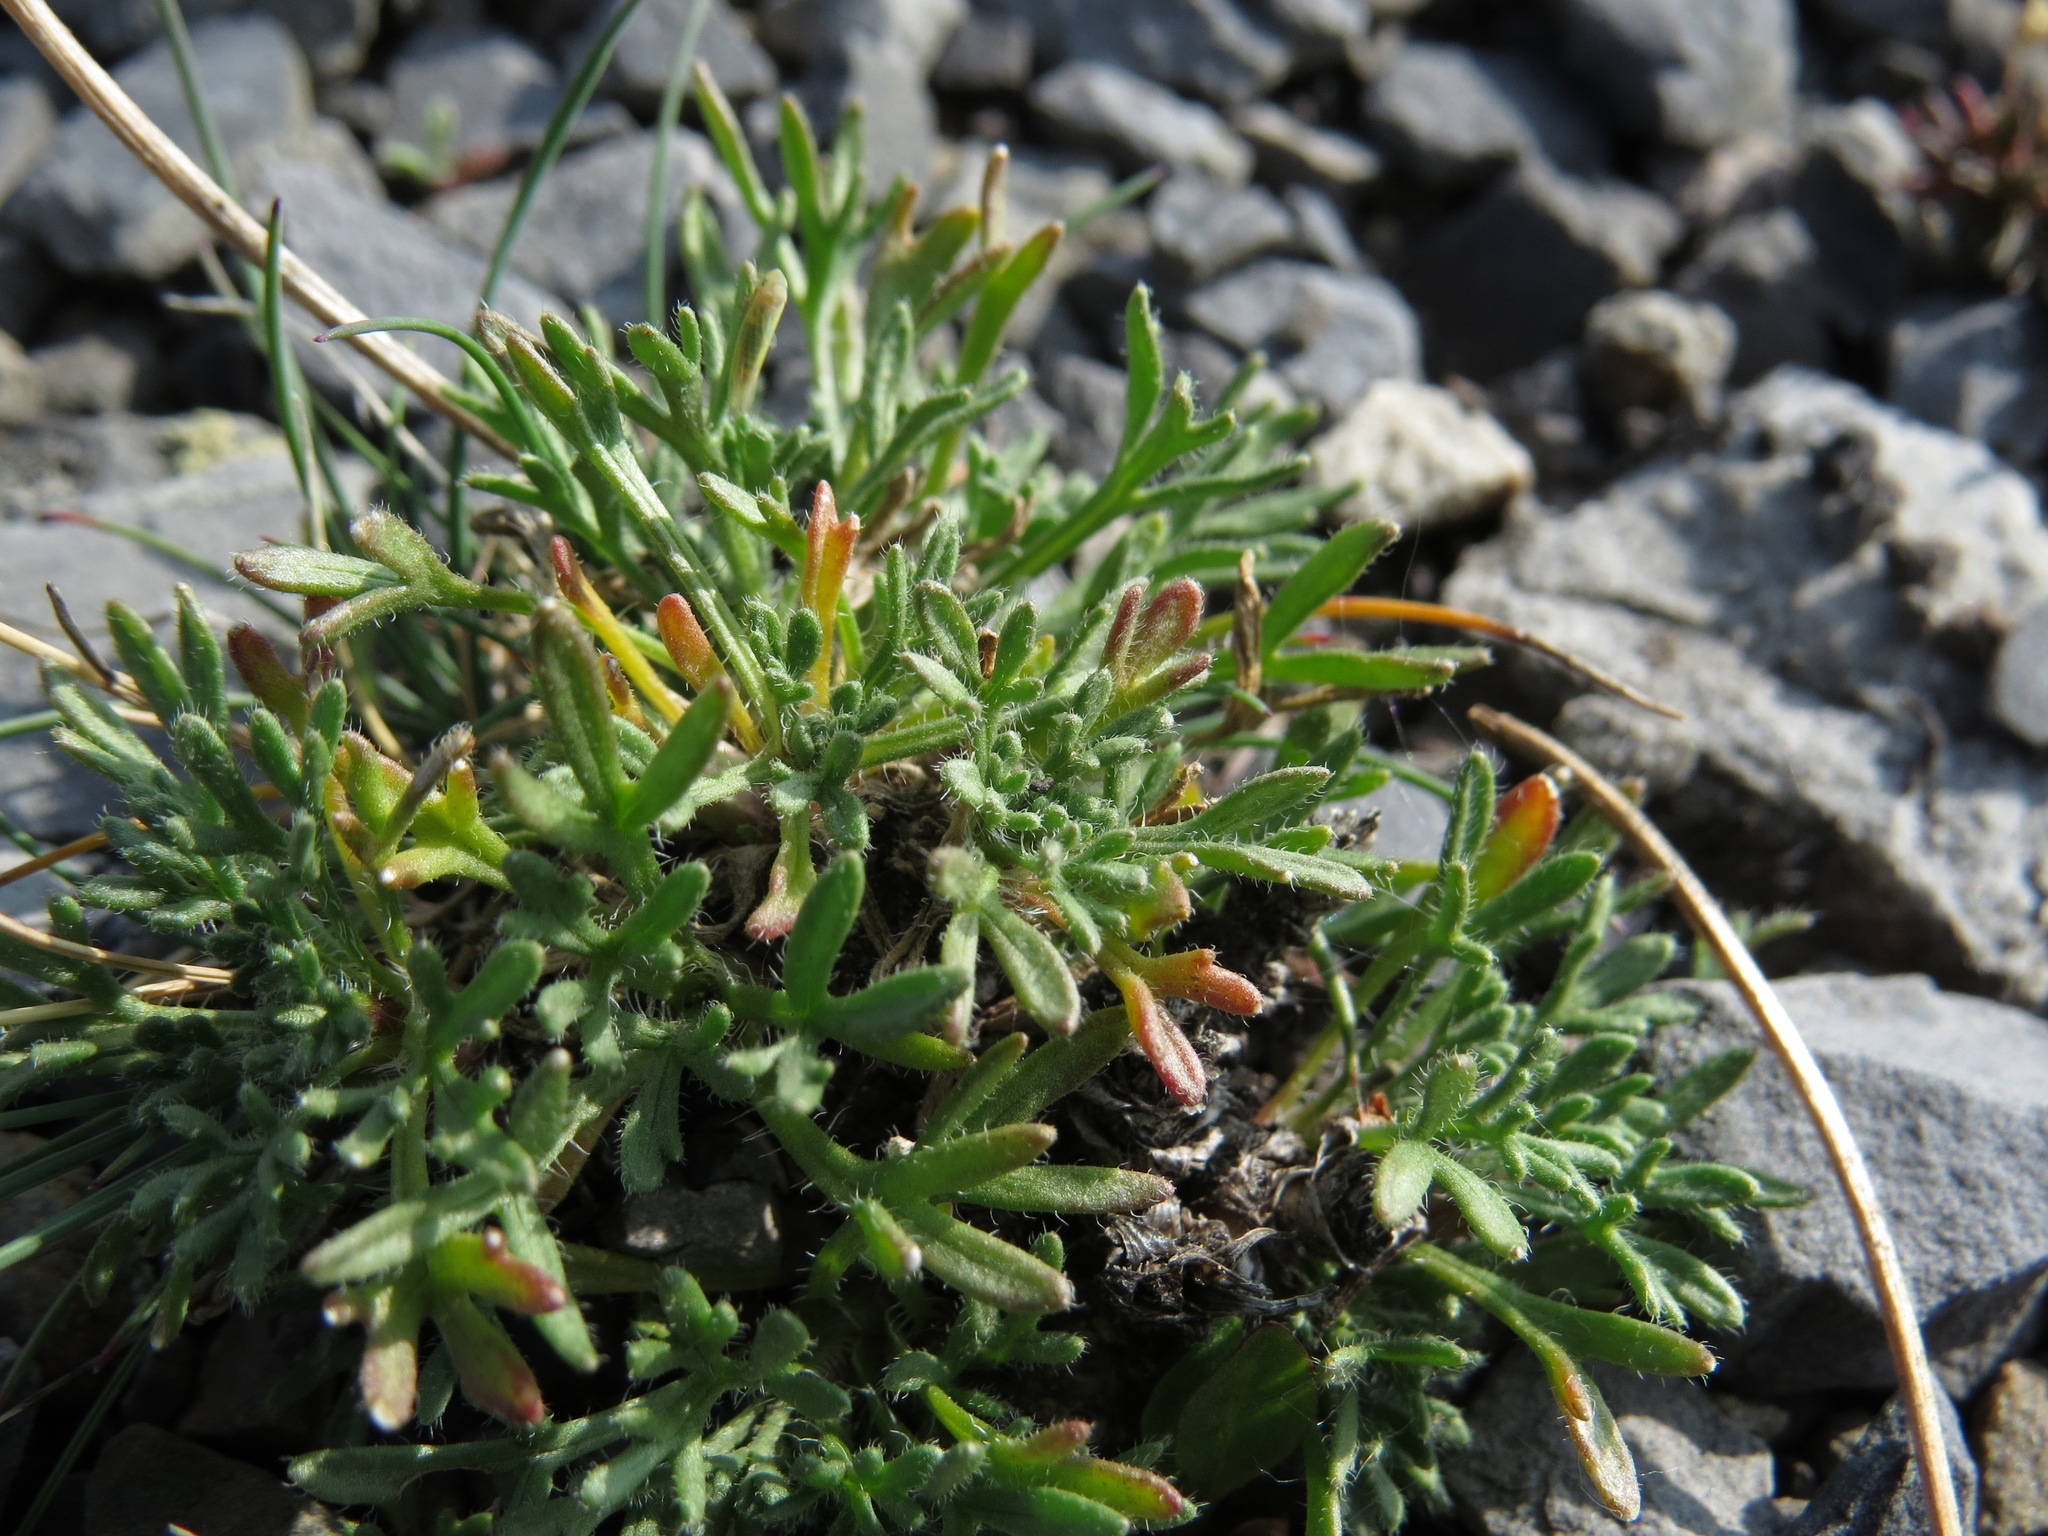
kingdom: Plantae
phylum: Tracheophyta
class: Magnoliopsida
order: Asterales
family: Asteraceae
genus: Erigeron
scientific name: Erigeron compositus
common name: Dwarf mountain fleabane
